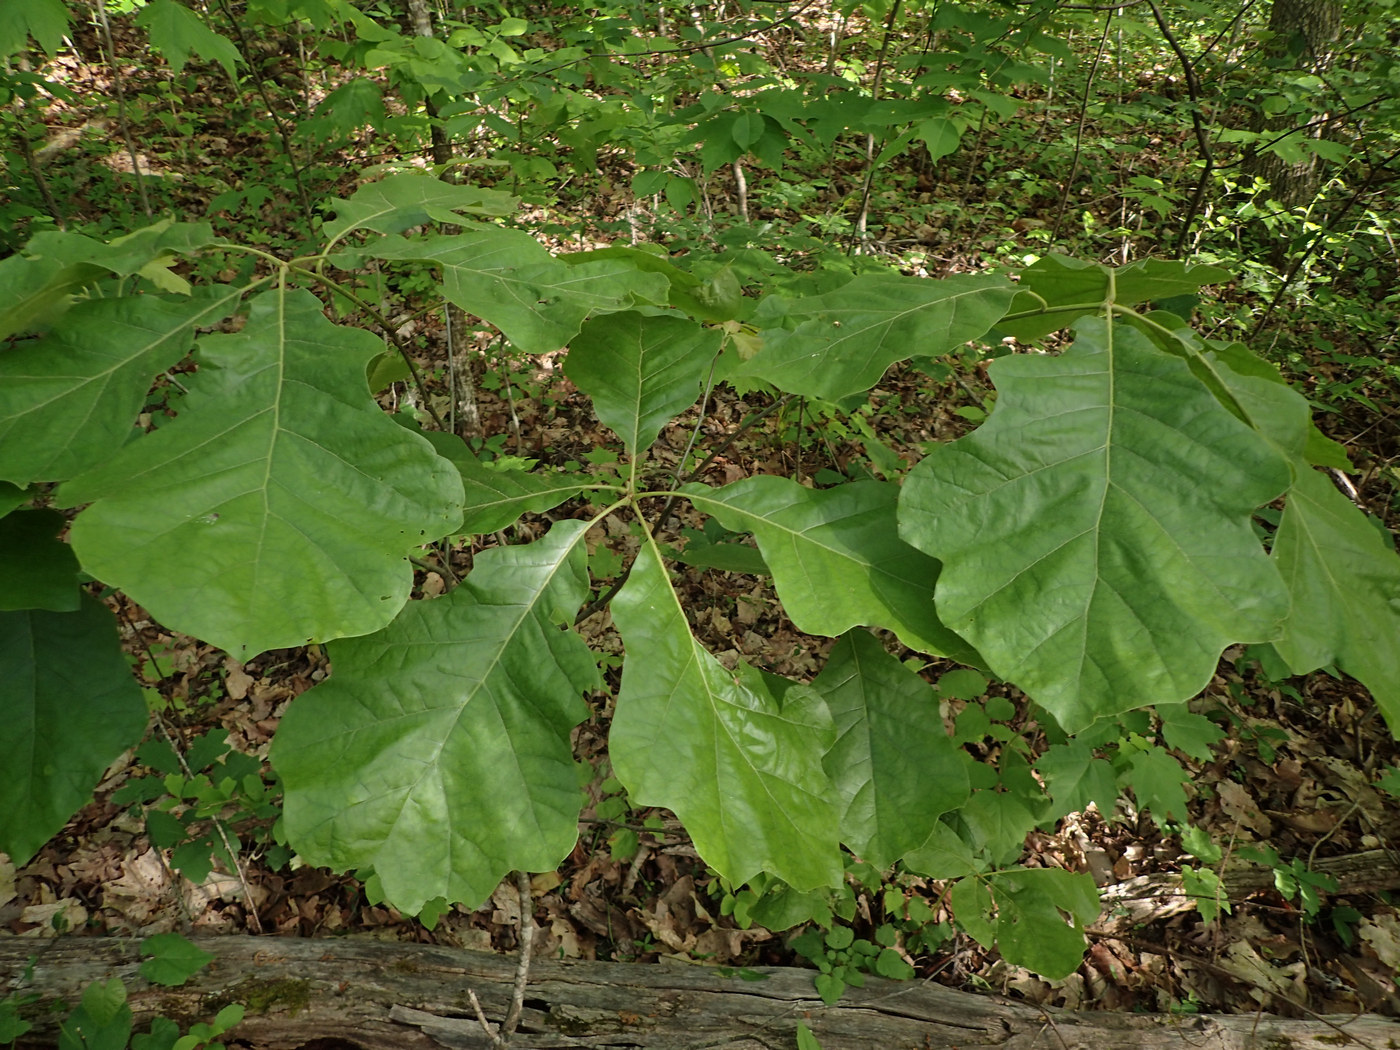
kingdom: Plantae
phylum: Tracheophyta
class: Magnoliopsida
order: Fagales
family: Fagaceae
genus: Quercus
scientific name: Quercus velutina
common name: Black oak
